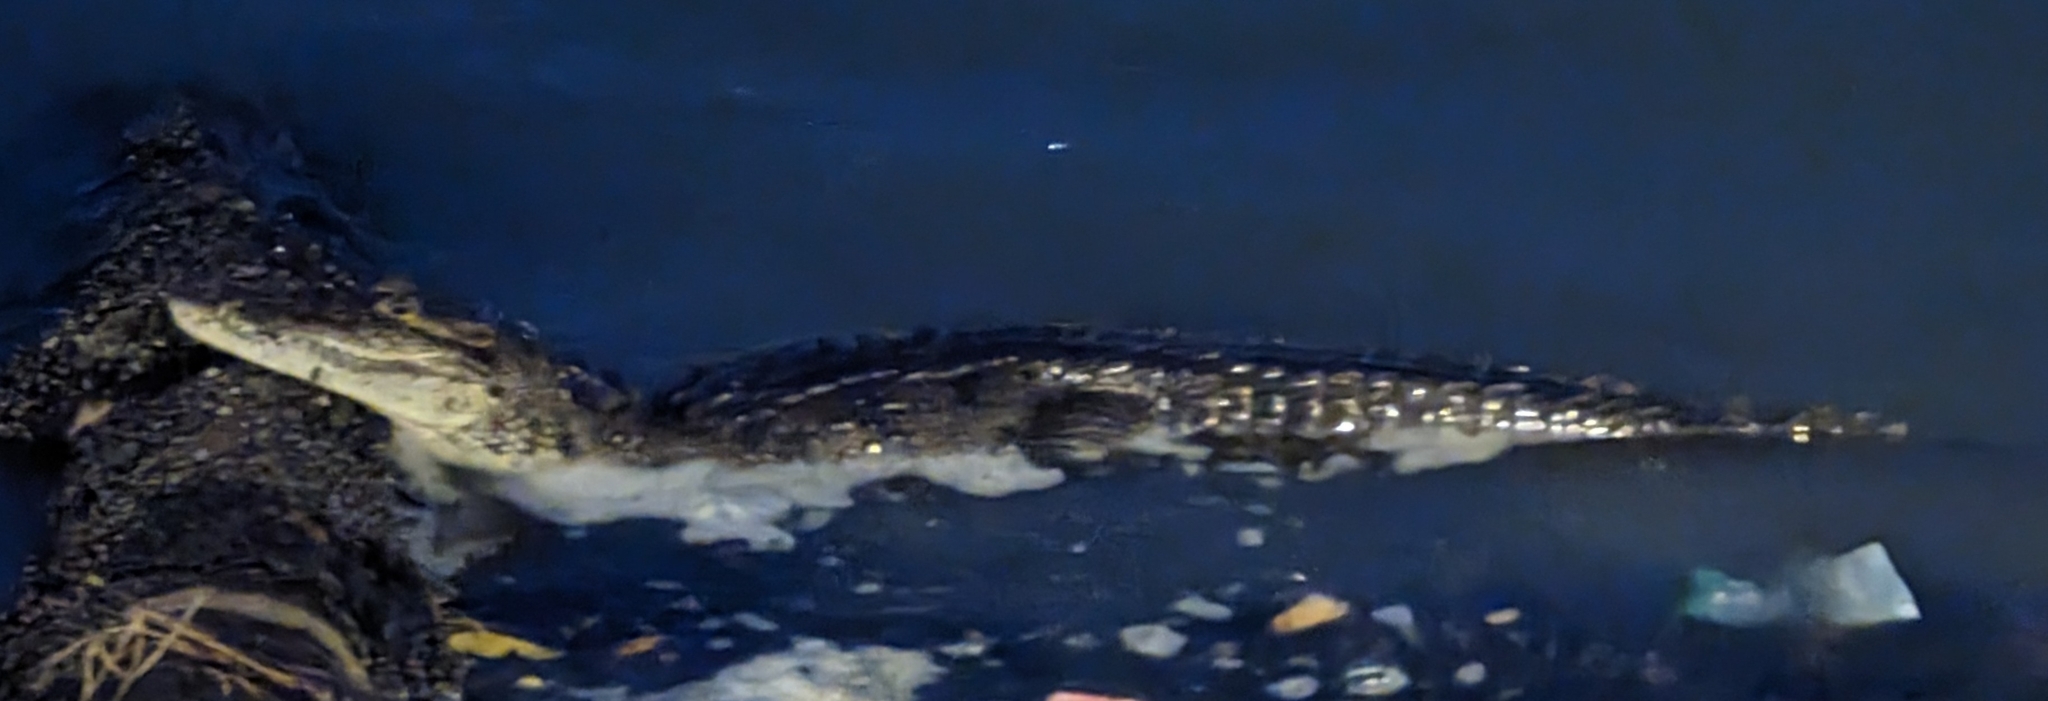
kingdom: Animalia
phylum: Chordata
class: Crocodylia
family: Crocodylidae
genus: Crocodylus
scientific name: Crocodylus moreletii
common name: Morelet's crocodile
